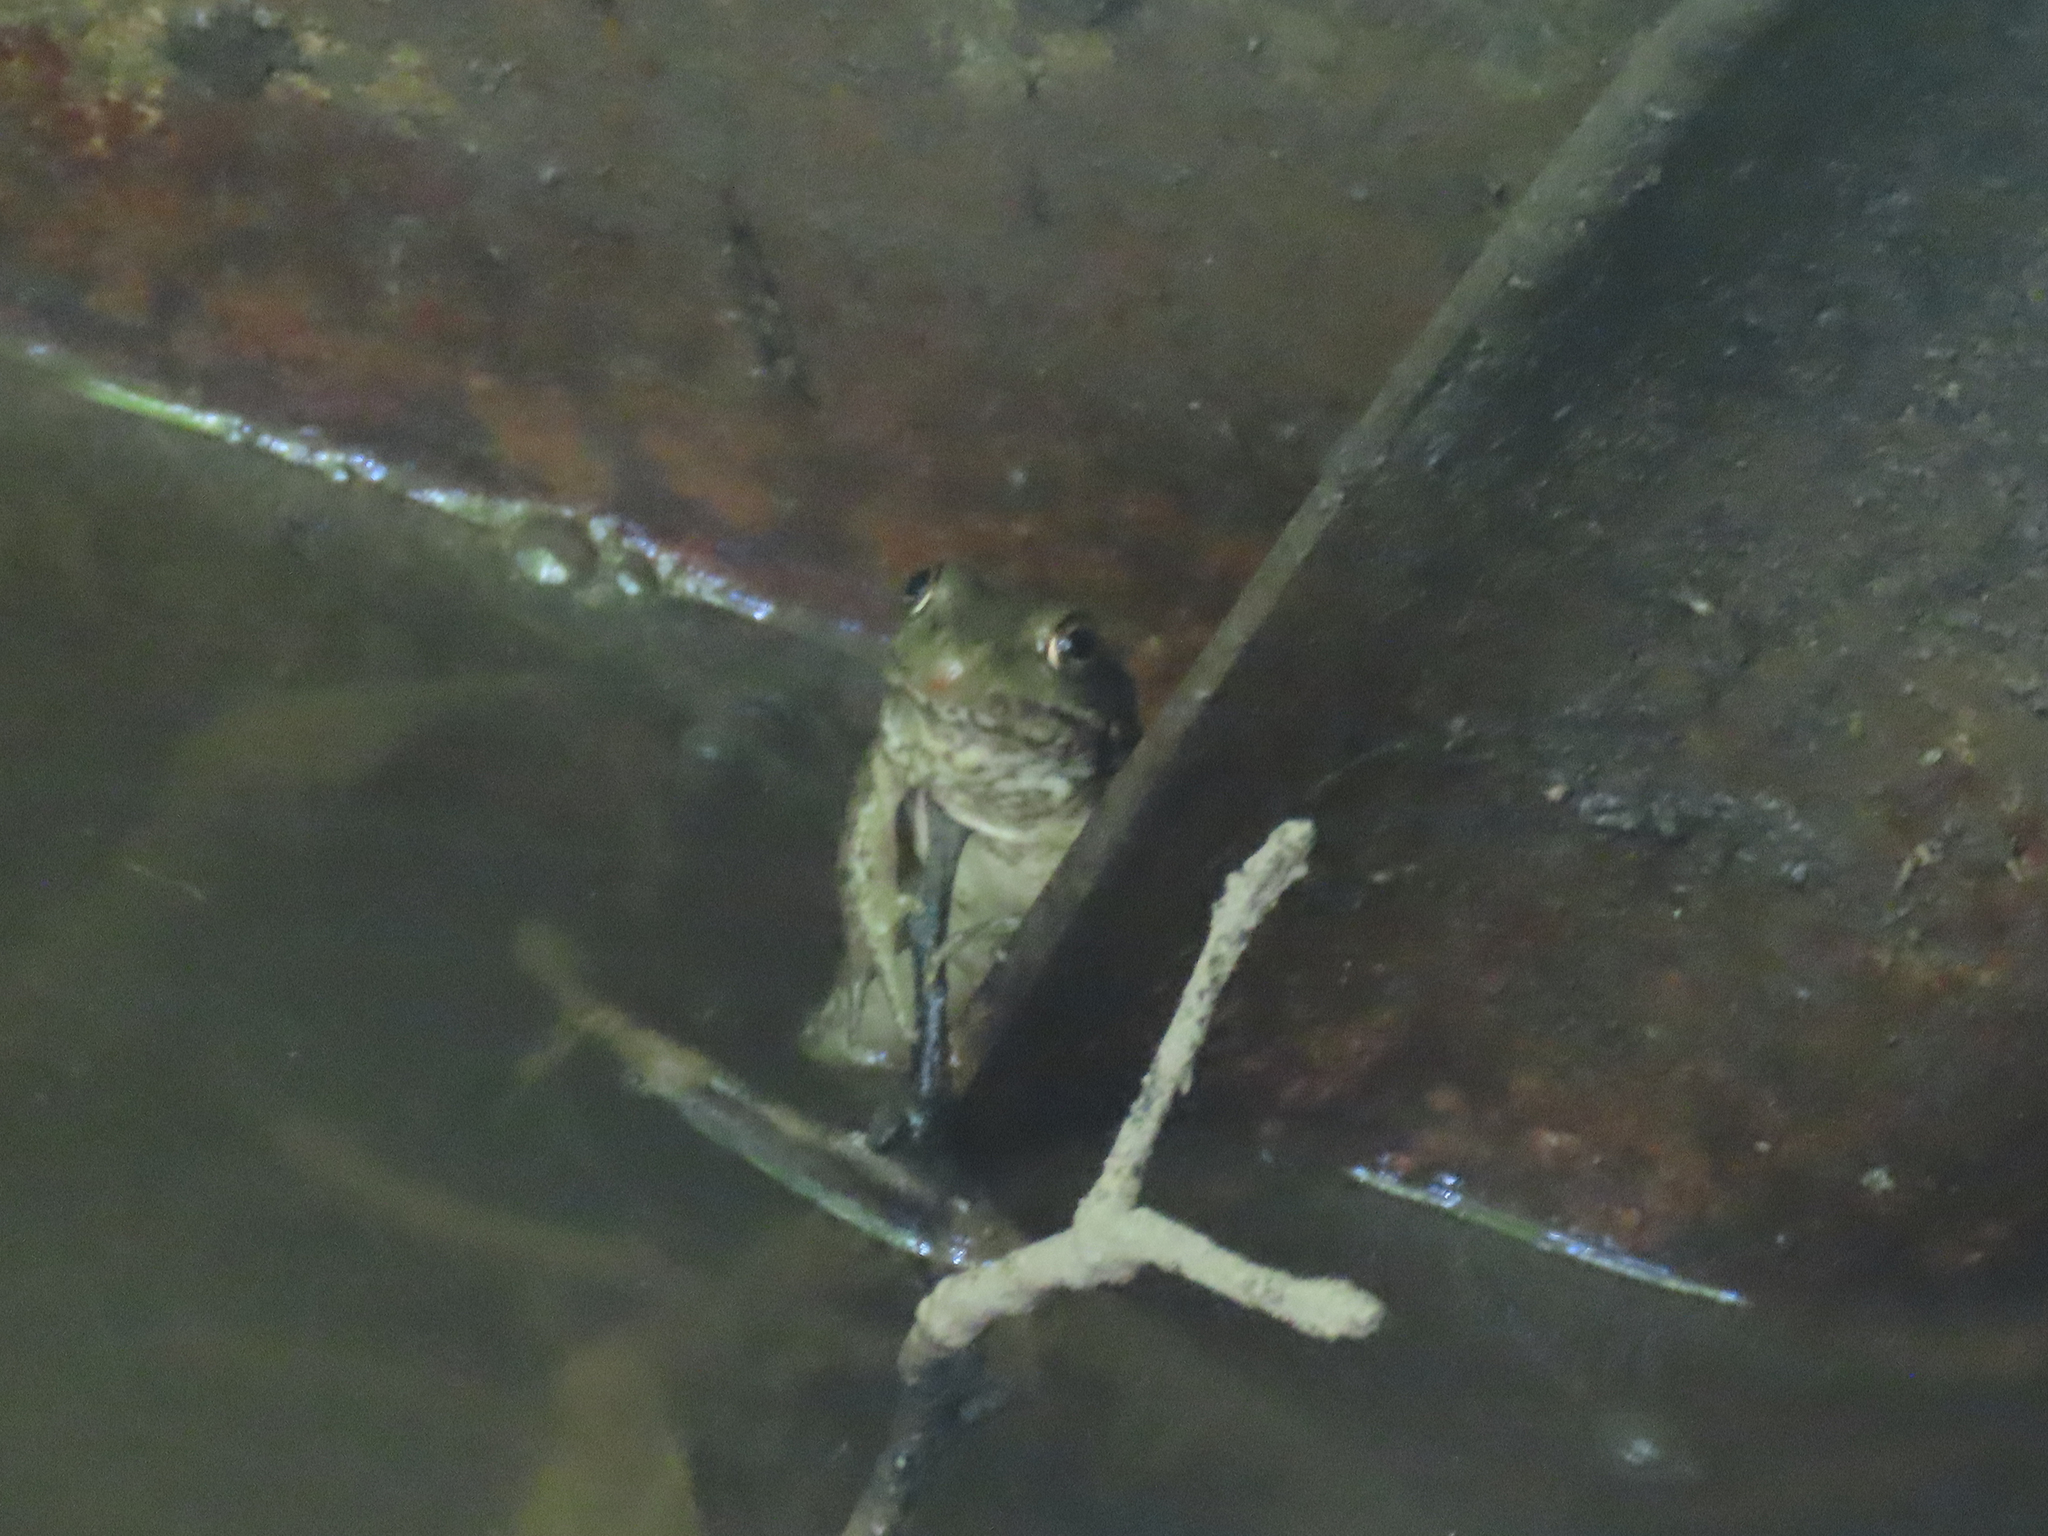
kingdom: Animalia
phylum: Chordata
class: Amphibia
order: Anura
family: Ranidae
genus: Lithobates
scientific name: Lithobates clamitans
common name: Green frog
